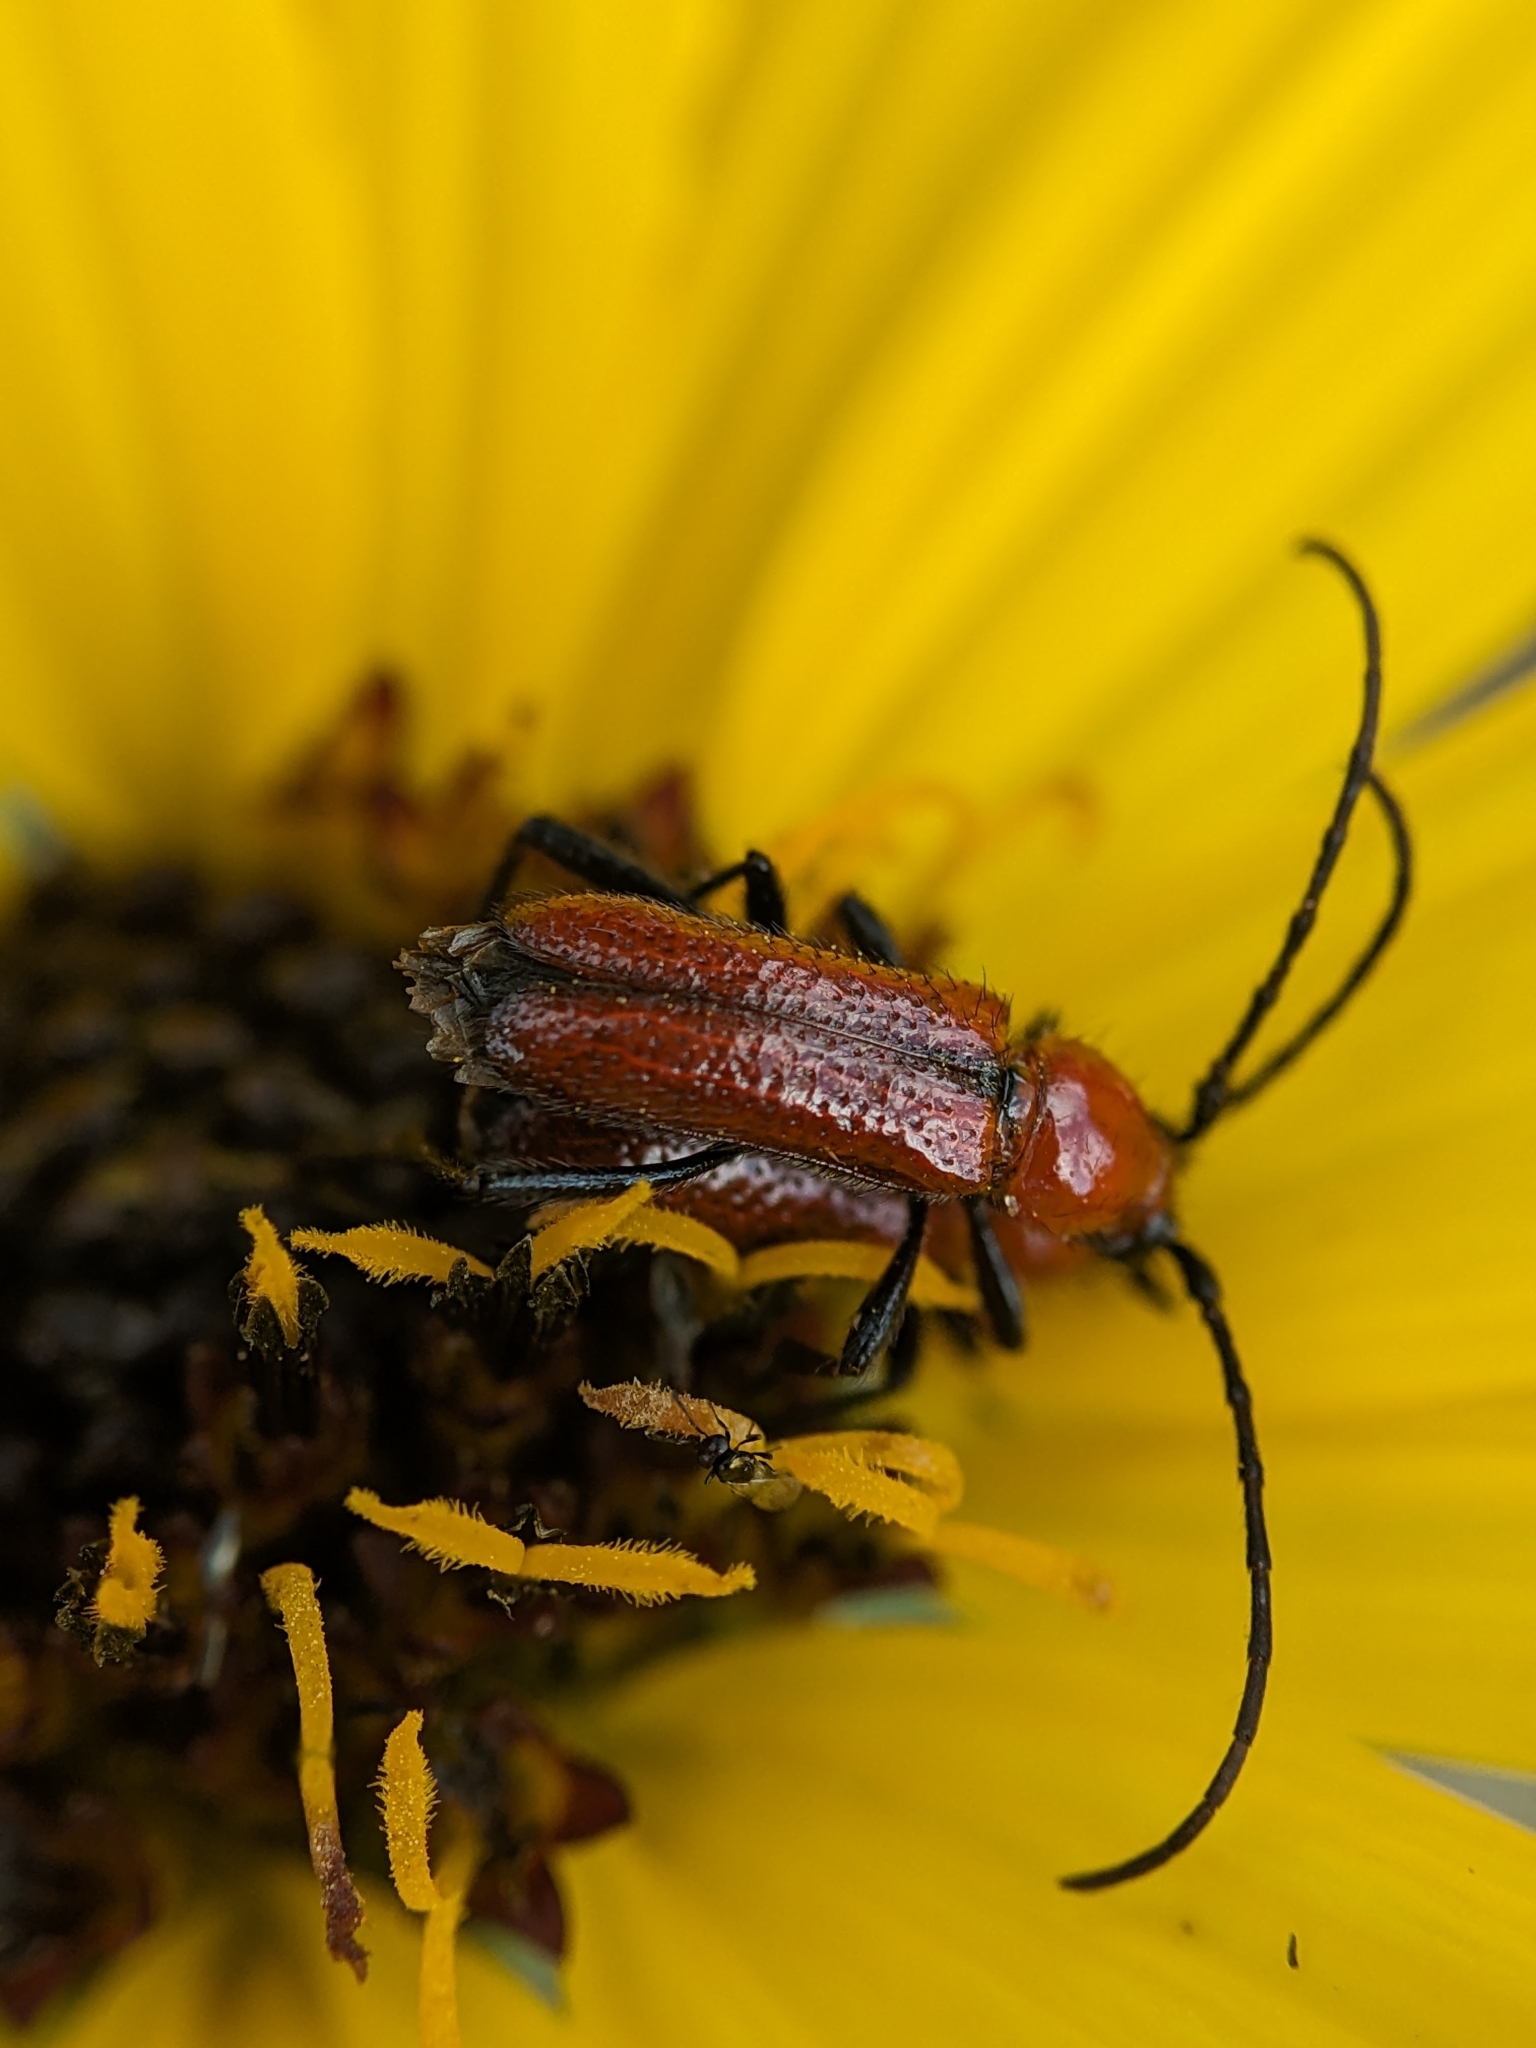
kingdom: Animalia
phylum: Arthropoda
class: Insecta
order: Coleoptera
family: Cerambycidae
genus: Batyle
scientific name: Batyle suturalis
